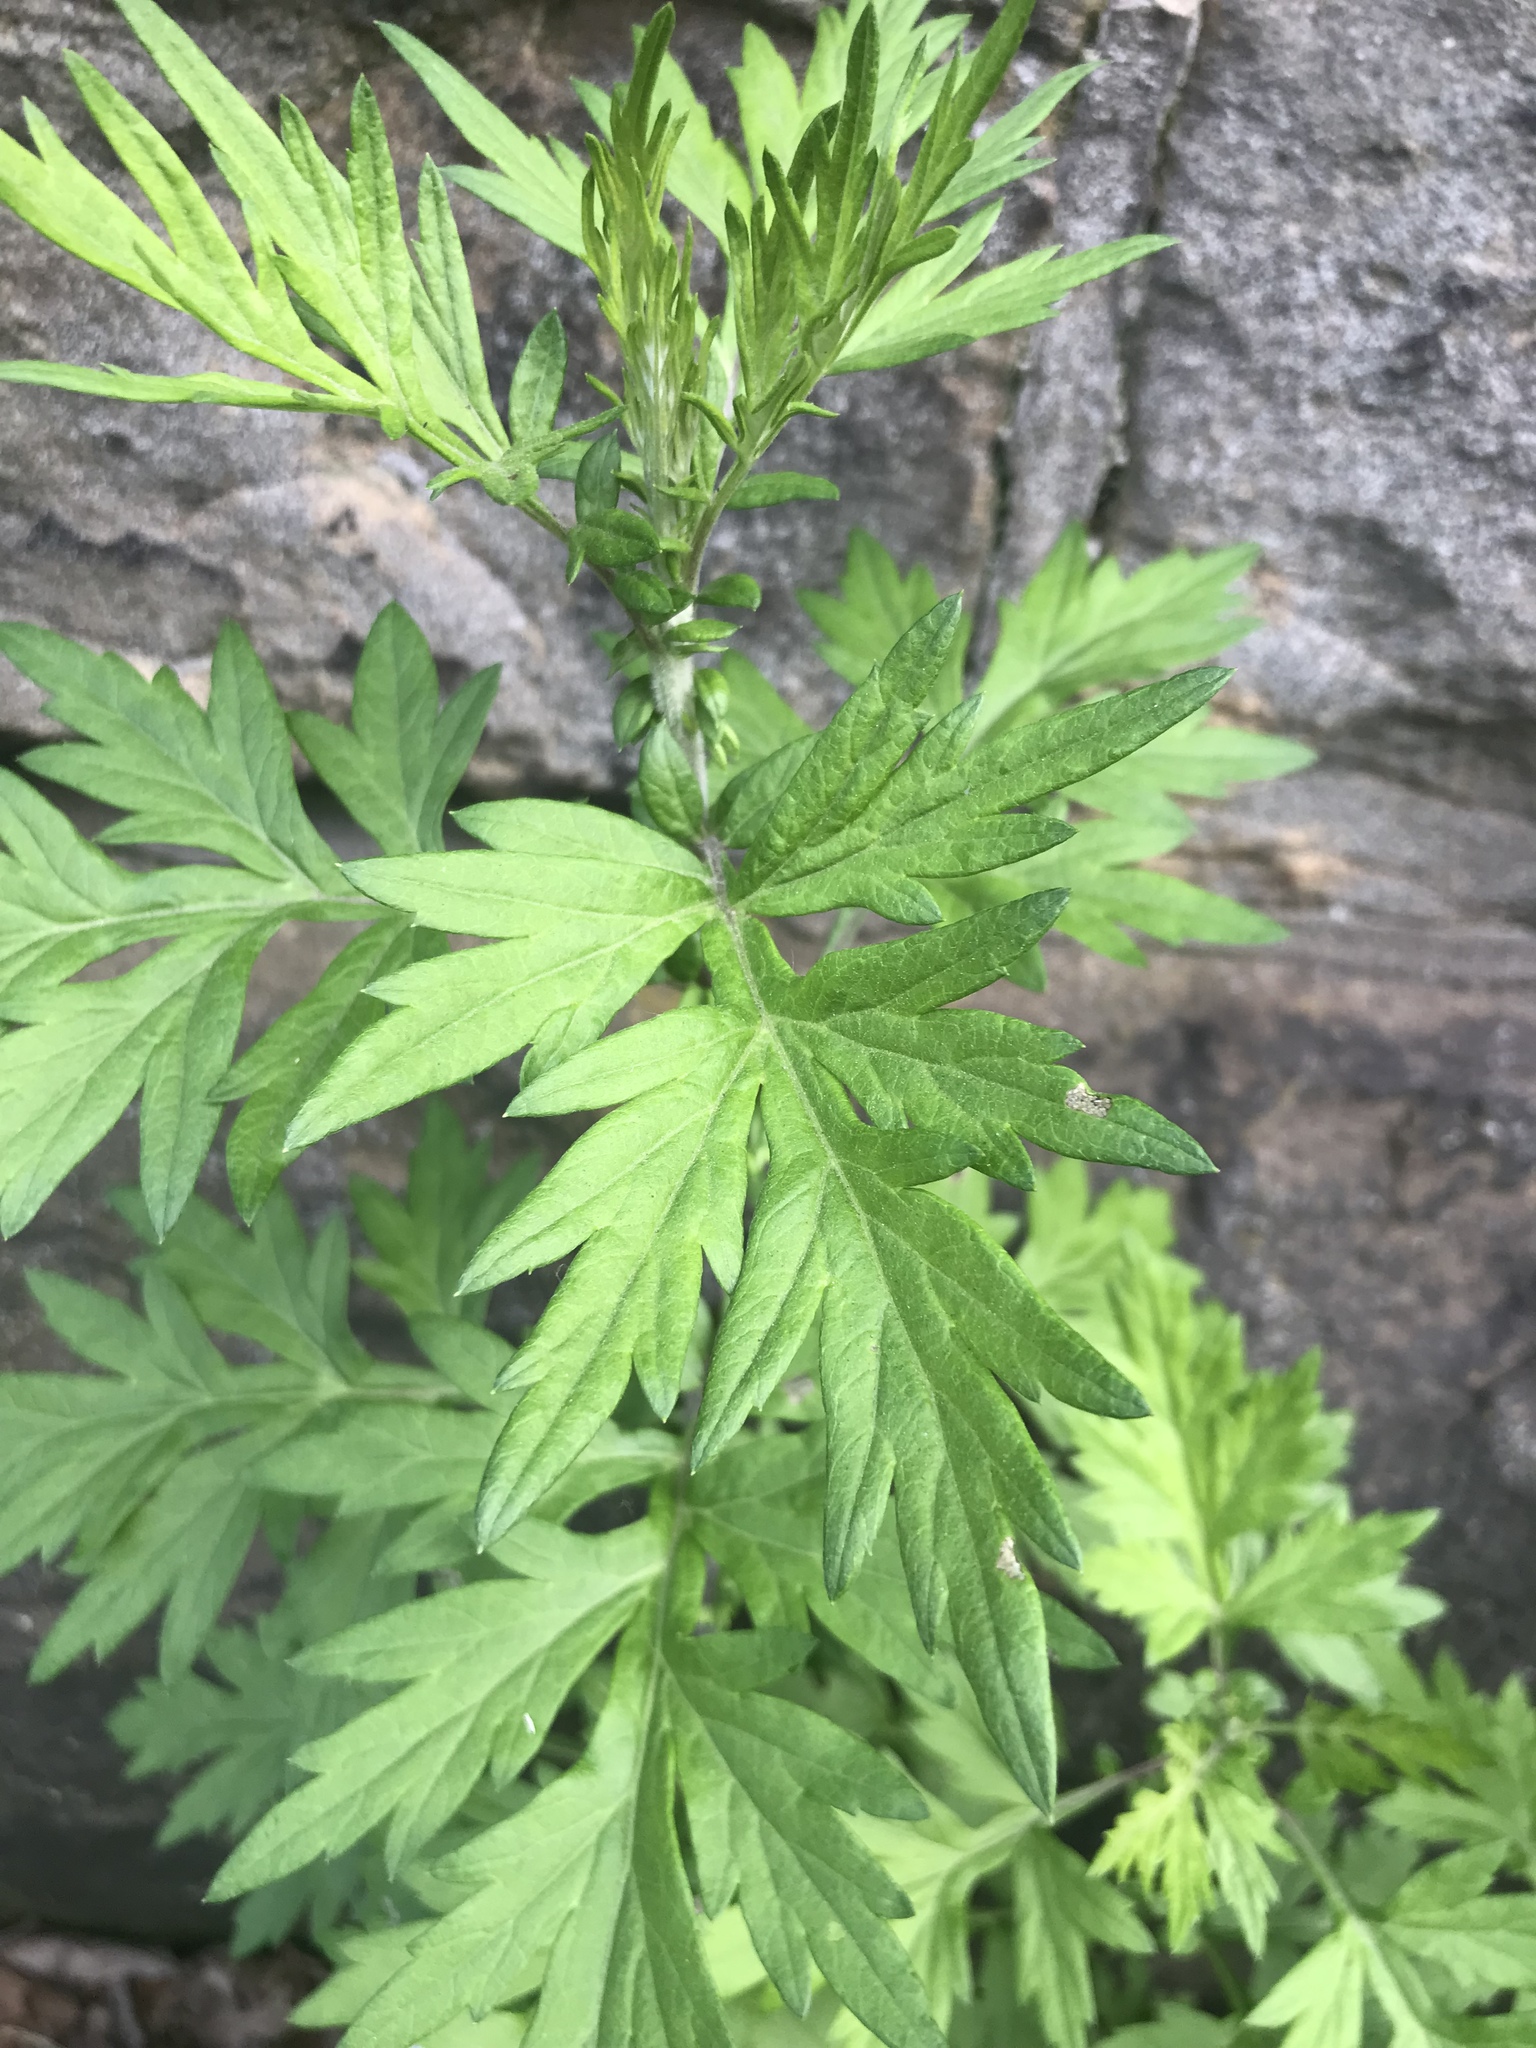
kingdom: Plantae
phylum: Tracheophyta
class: Magnoliopsida
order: Asterales
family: Asteraceae
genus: Artemisia
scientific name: Artemisia vulgaris
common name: Mugwort
